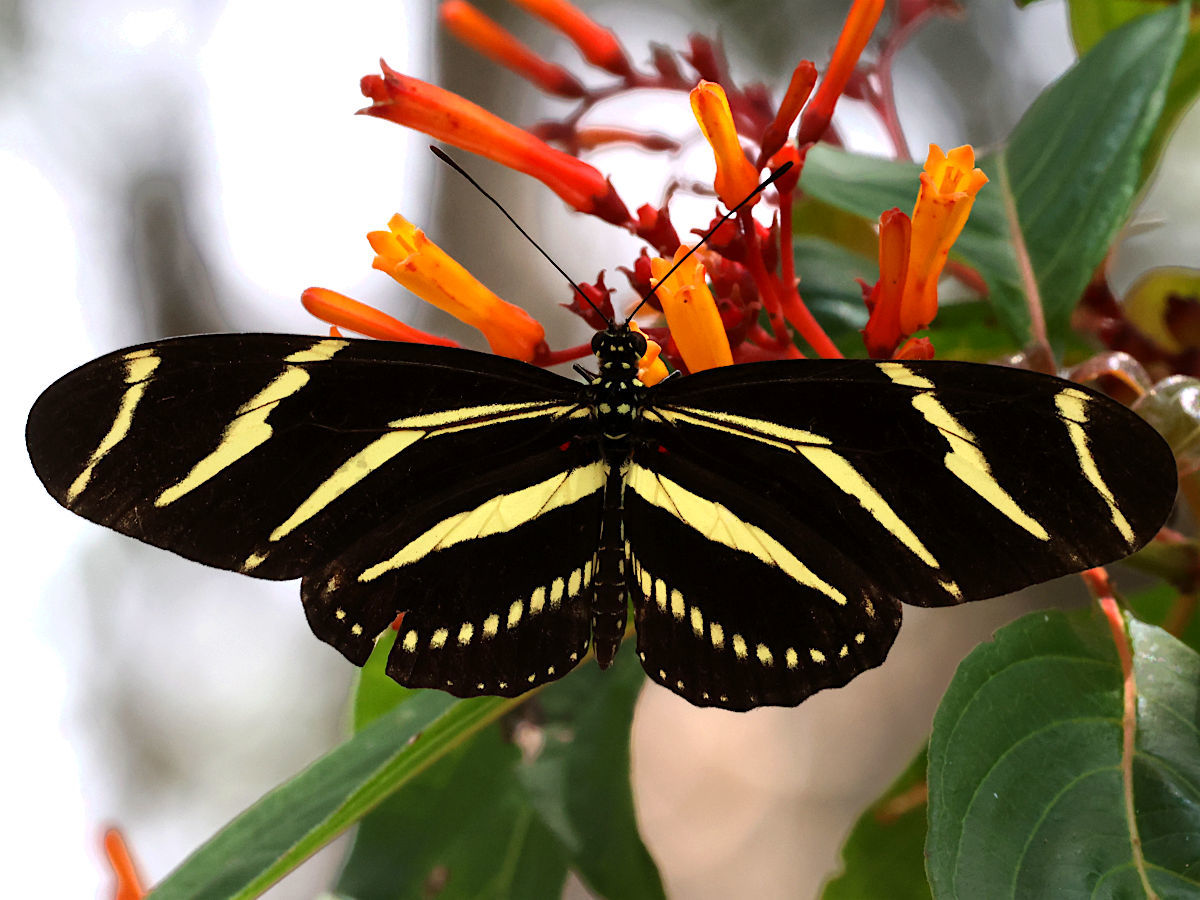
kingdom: Animalia
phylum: Arthropoda
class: Insecta
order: Lepidoptera
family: Nymphalidae
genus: Heliconius
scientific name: Heliconius charithonia
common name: Zebra long wing
